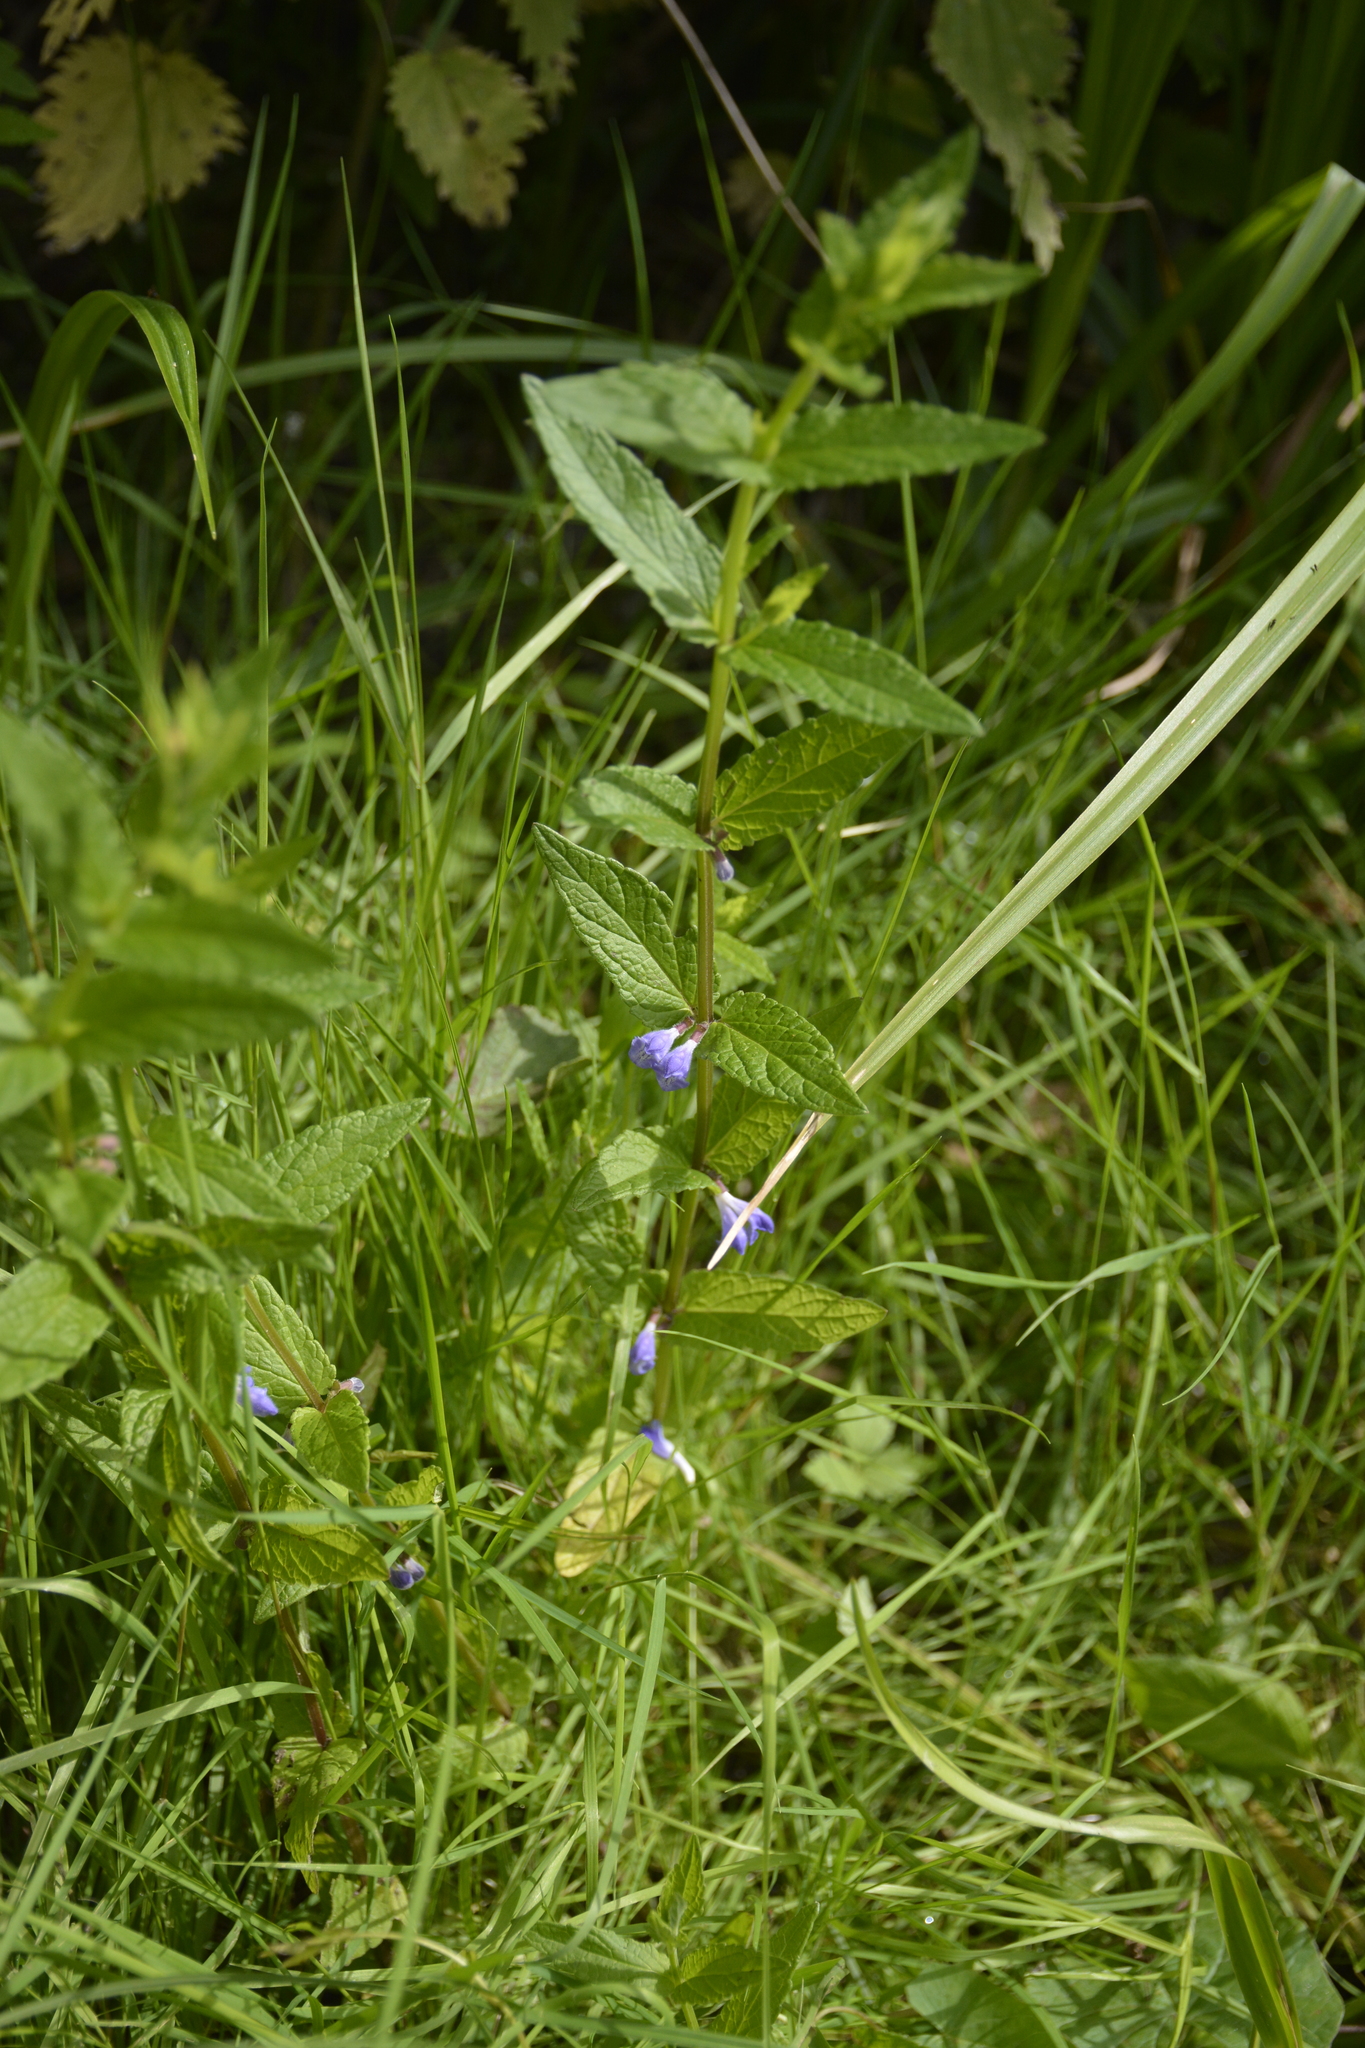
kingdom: Plantae
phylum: Tracheophyta
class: Magnoliopsida
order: Lamiales
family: Lamiaceae
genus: Scutellaria
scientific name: Scutellaria galericulata
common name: Skullcap
